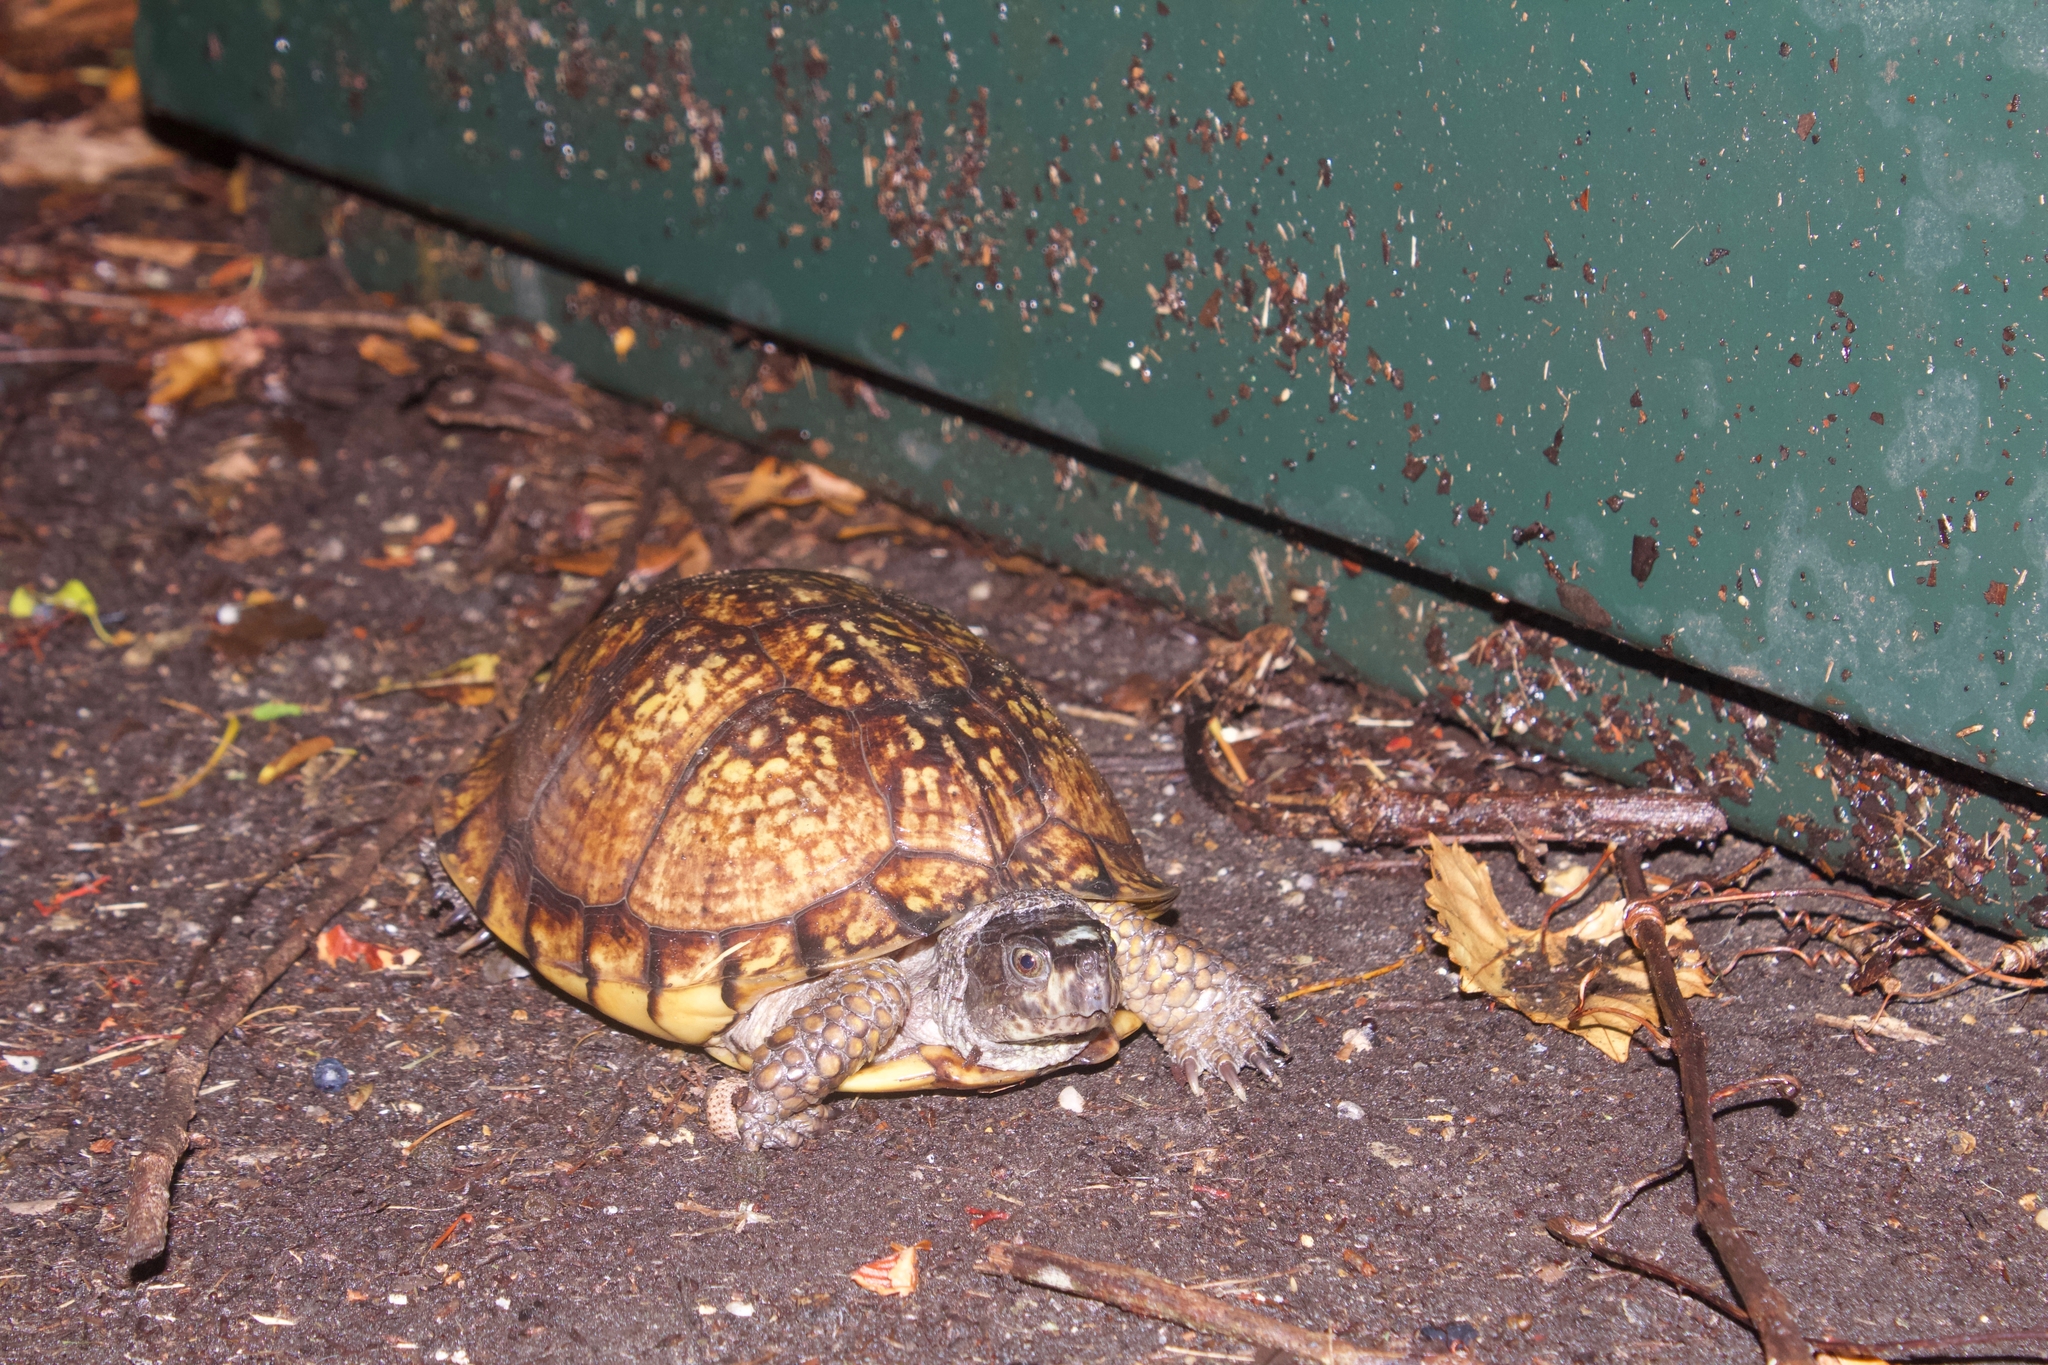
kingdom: Animalia
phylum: Chordata
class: Testudines
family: Emydidae
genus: Terrapene
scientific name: Terrapene carolina
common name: Common box turtle
